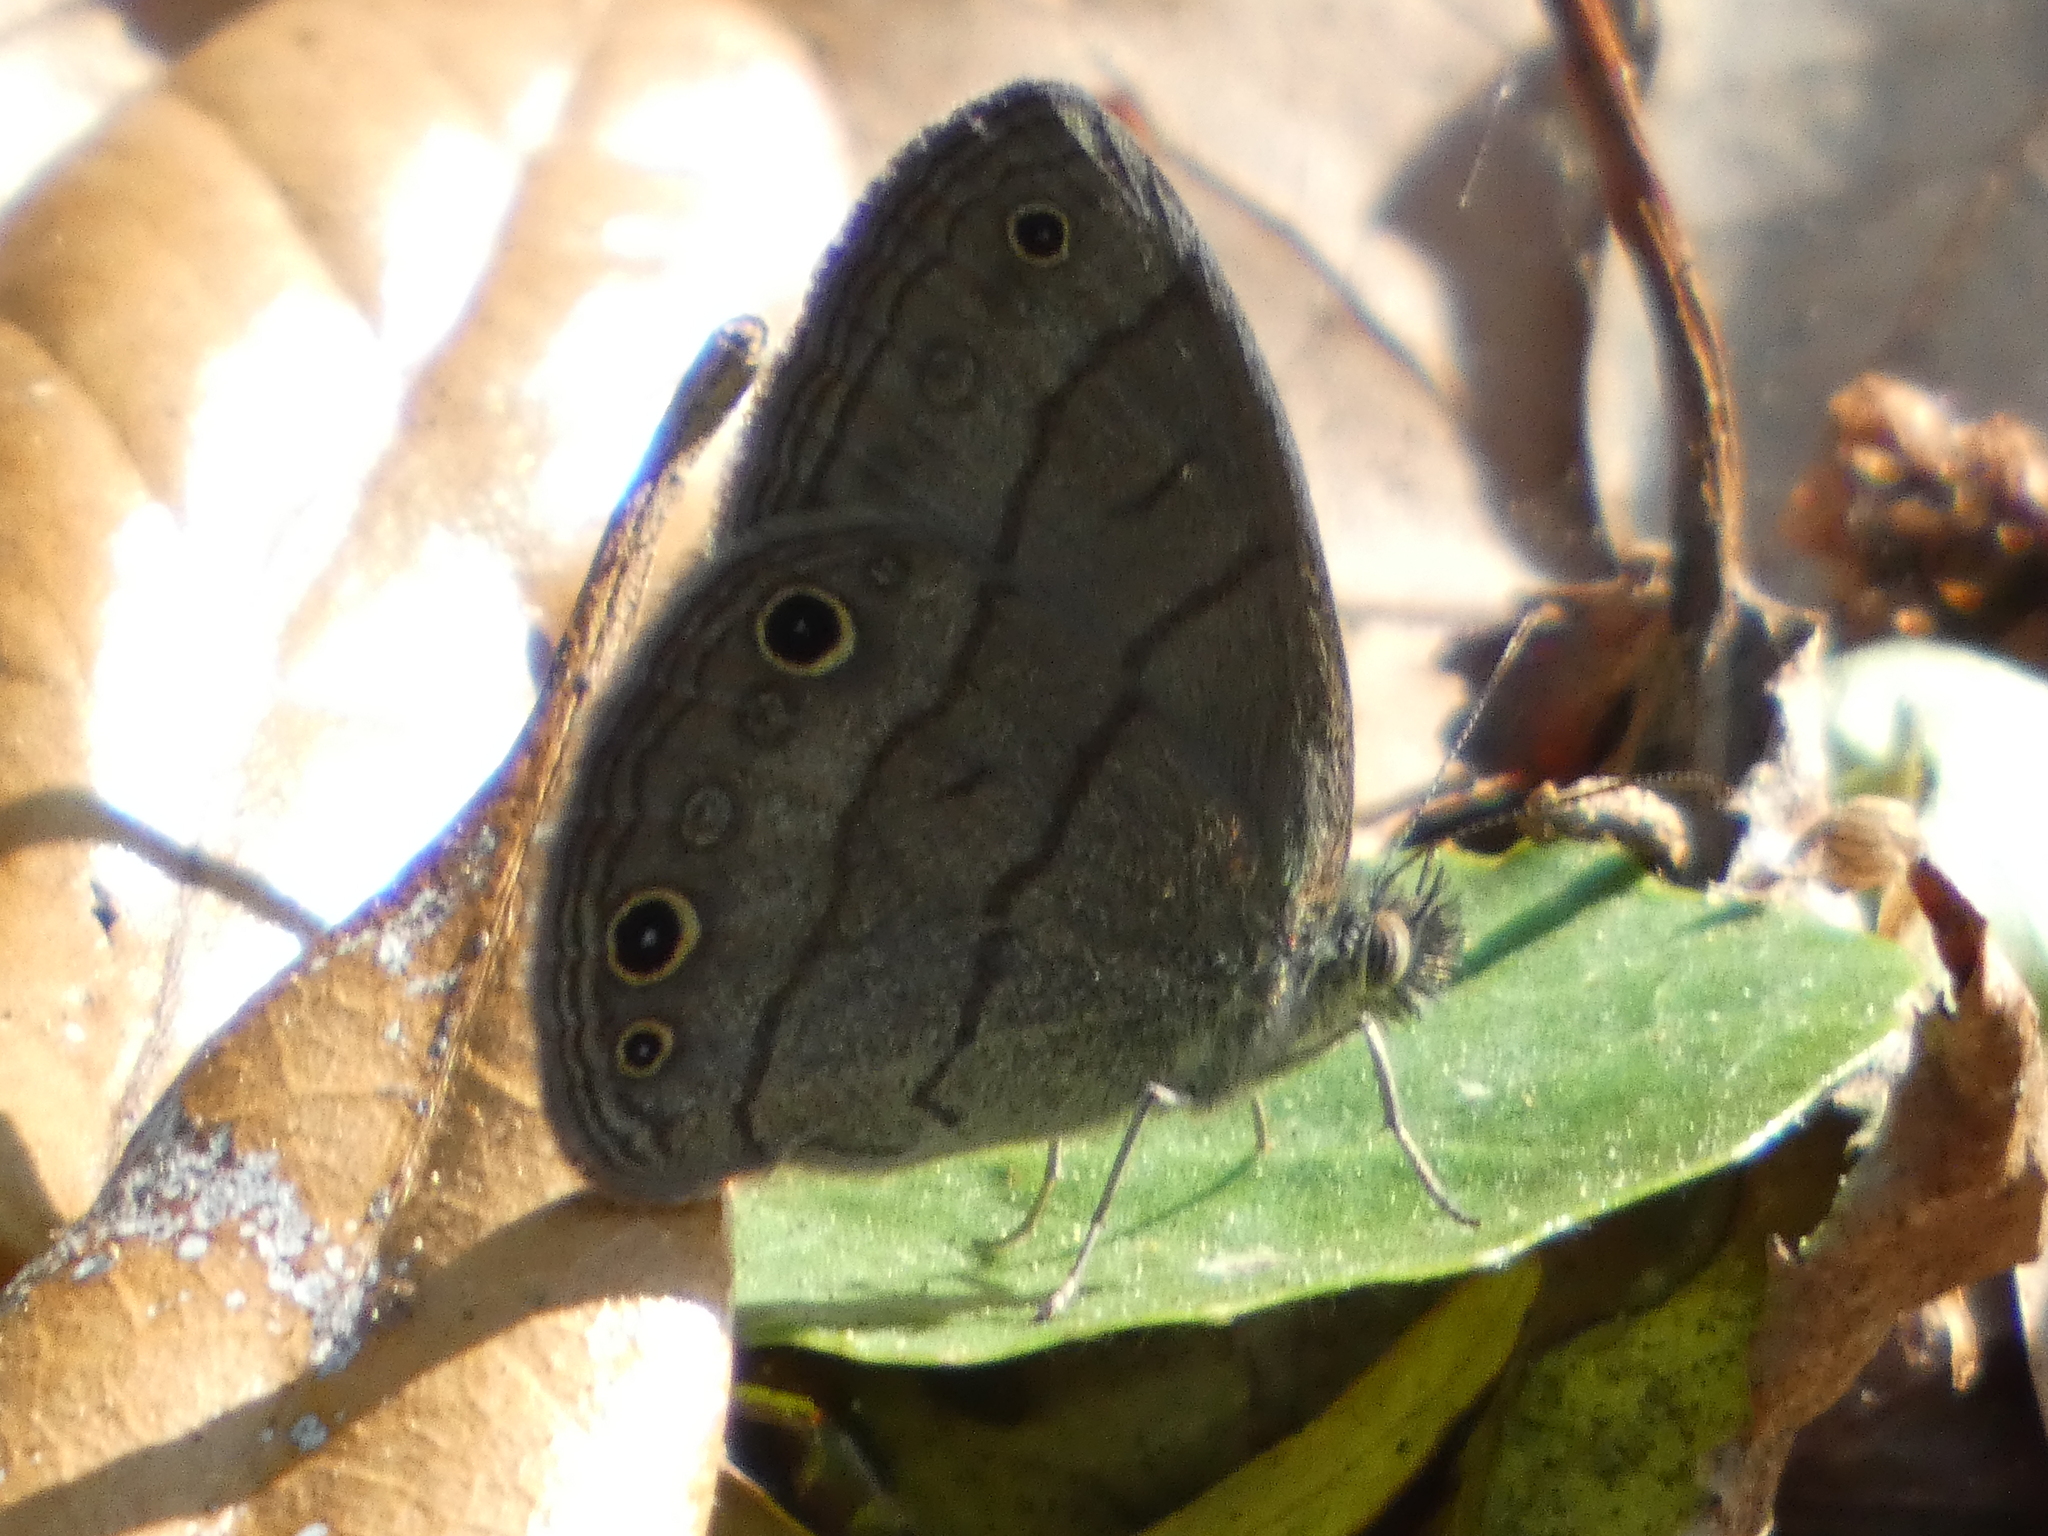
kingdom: Animalia
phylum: Arthropoda
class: Insecta
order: Lepidoptera
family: Nymphalidae
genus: Hermeuptychia
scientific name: Hermeuptychia hermes
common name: Hermes satyr
